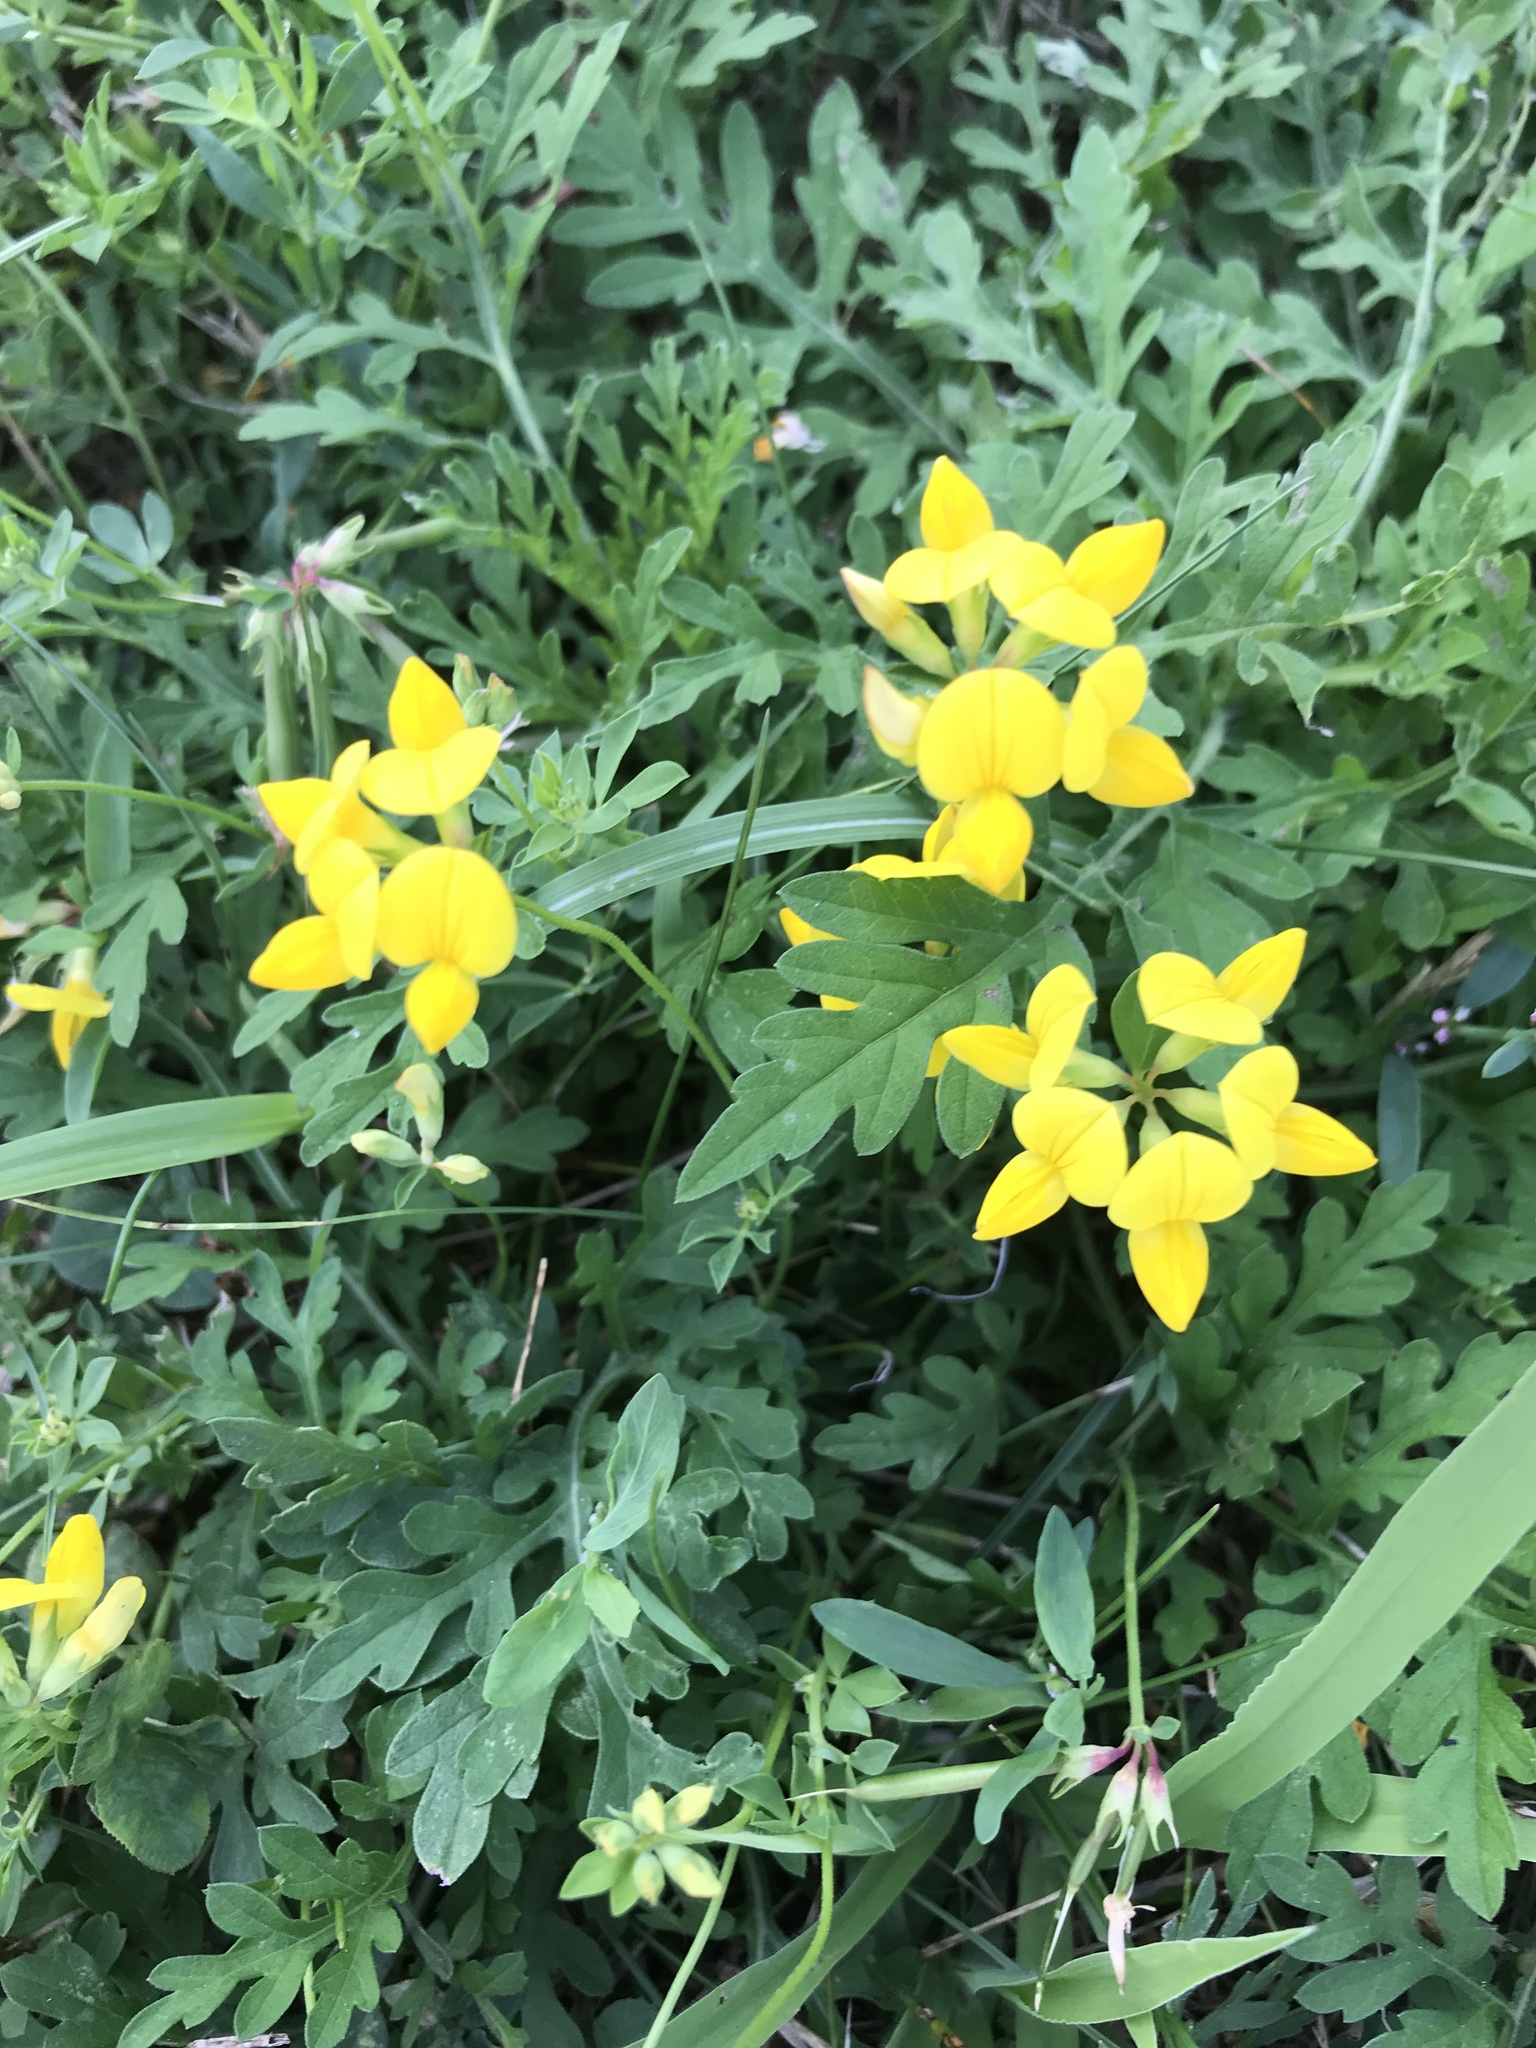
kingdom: Plantae
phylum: Tracheophyta
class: Magnoliopsida
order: Fabales
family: Fabaceae
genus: Lotus
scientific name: Lotus corniculatus
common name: Common bird's-foot-trefoil
